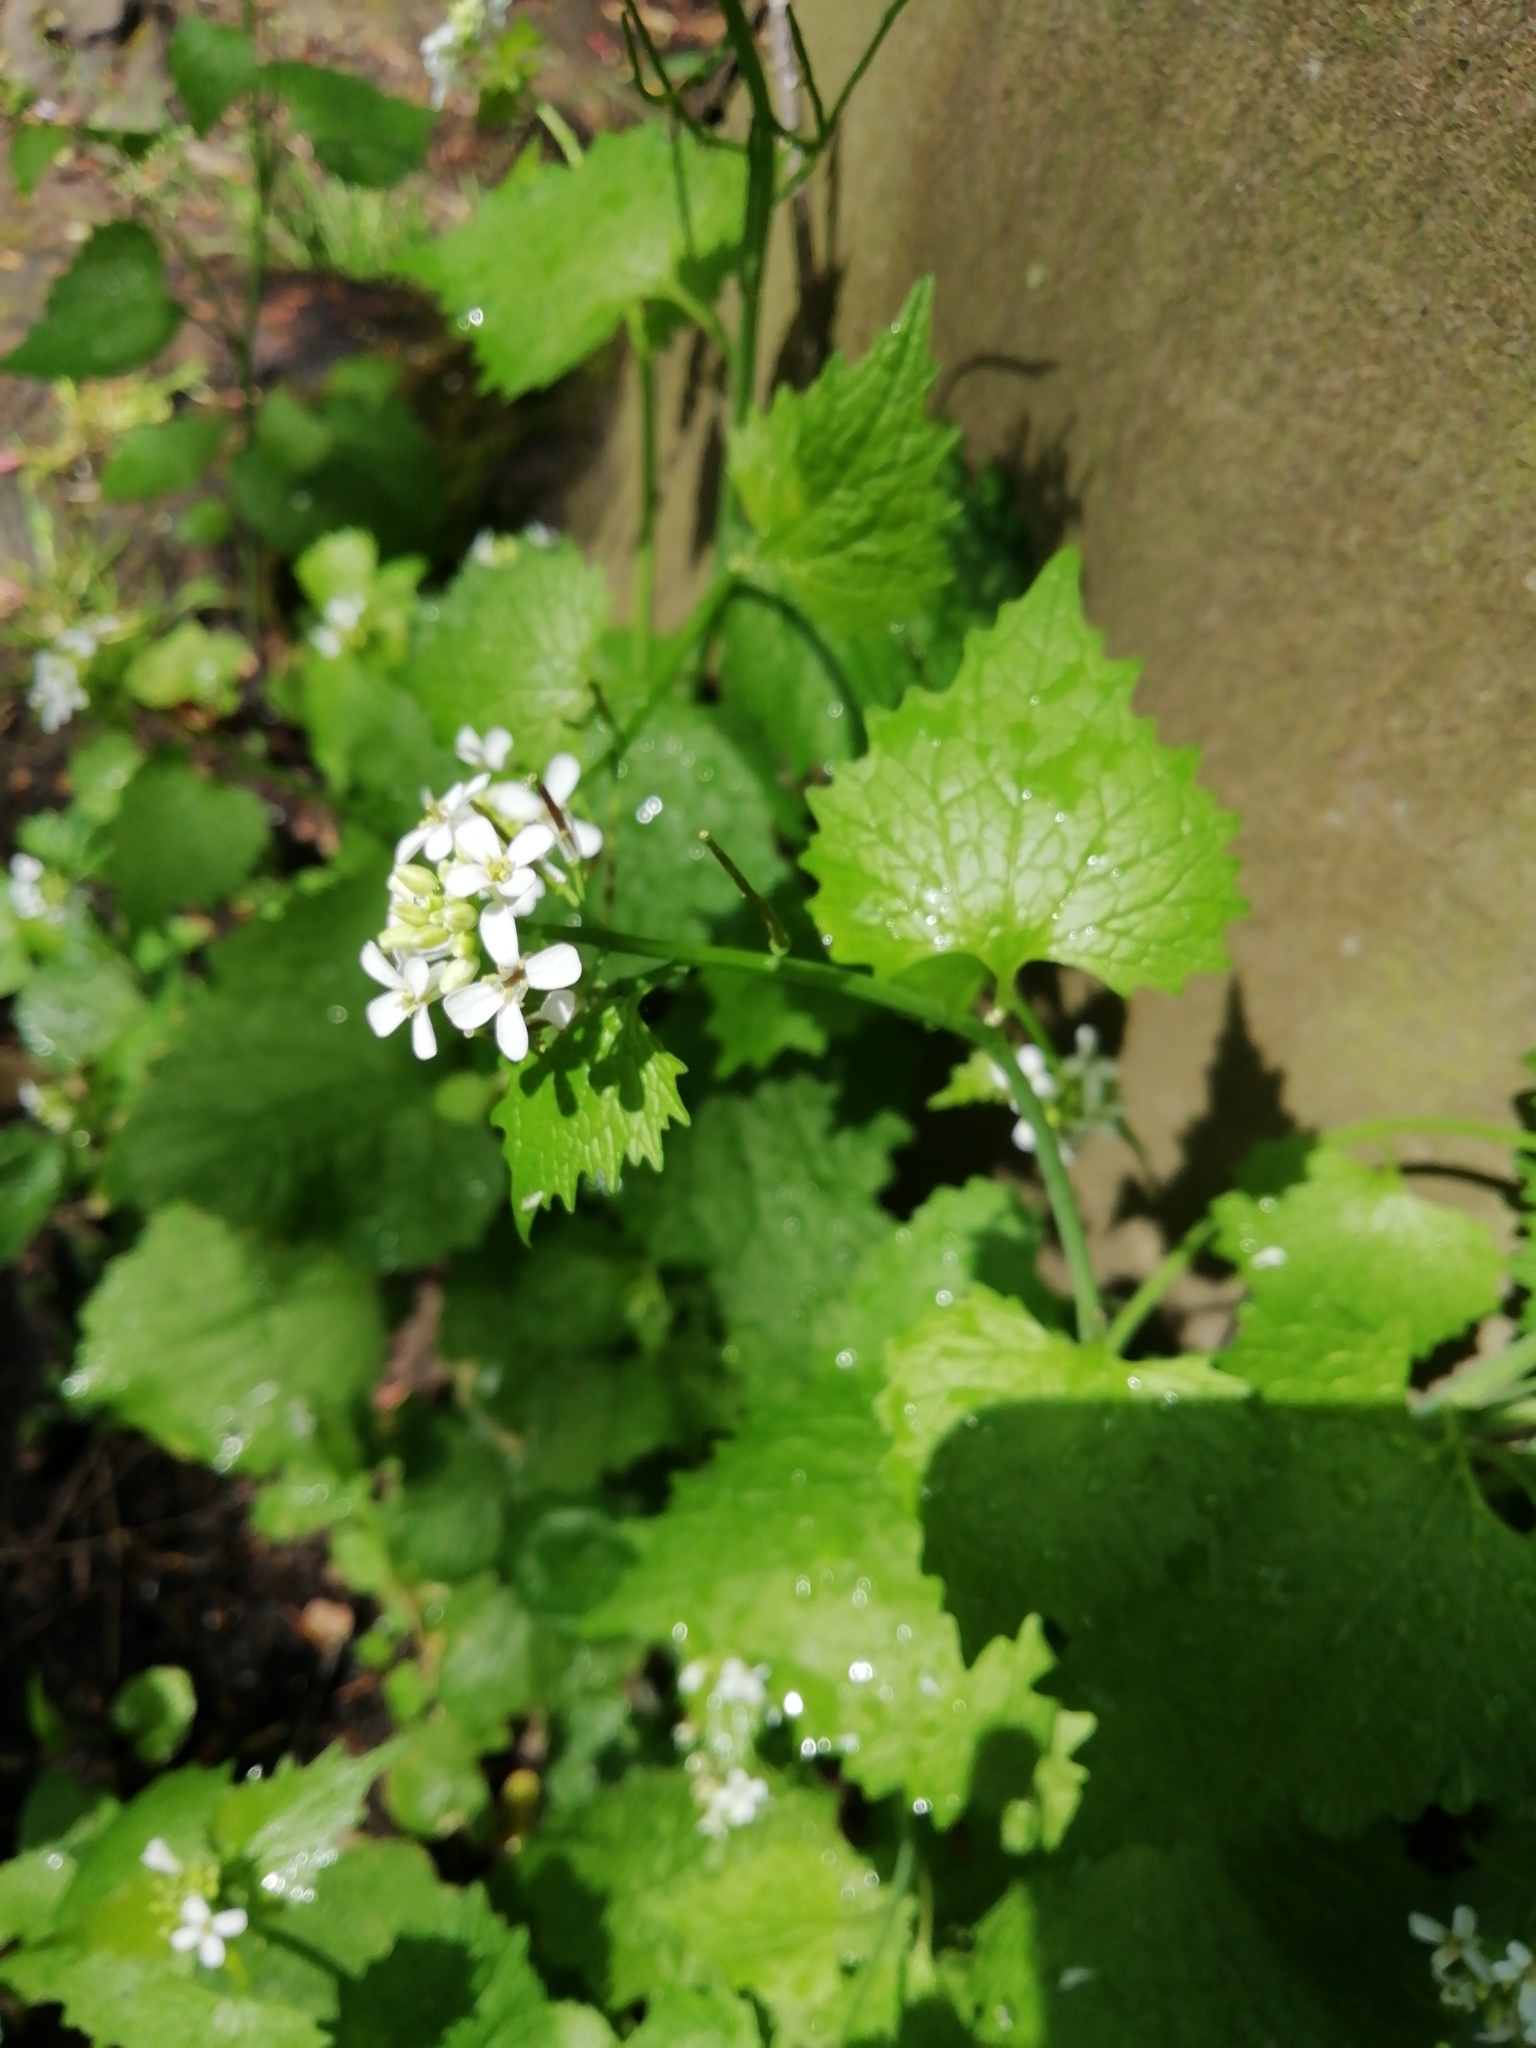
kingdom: Plantae
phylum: Tracheophyta
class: Magnoliopsida
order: Brassicales
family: Brassicaceae
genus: Alliaria
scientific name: Alliaria petiolata
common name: Garlic mustard
